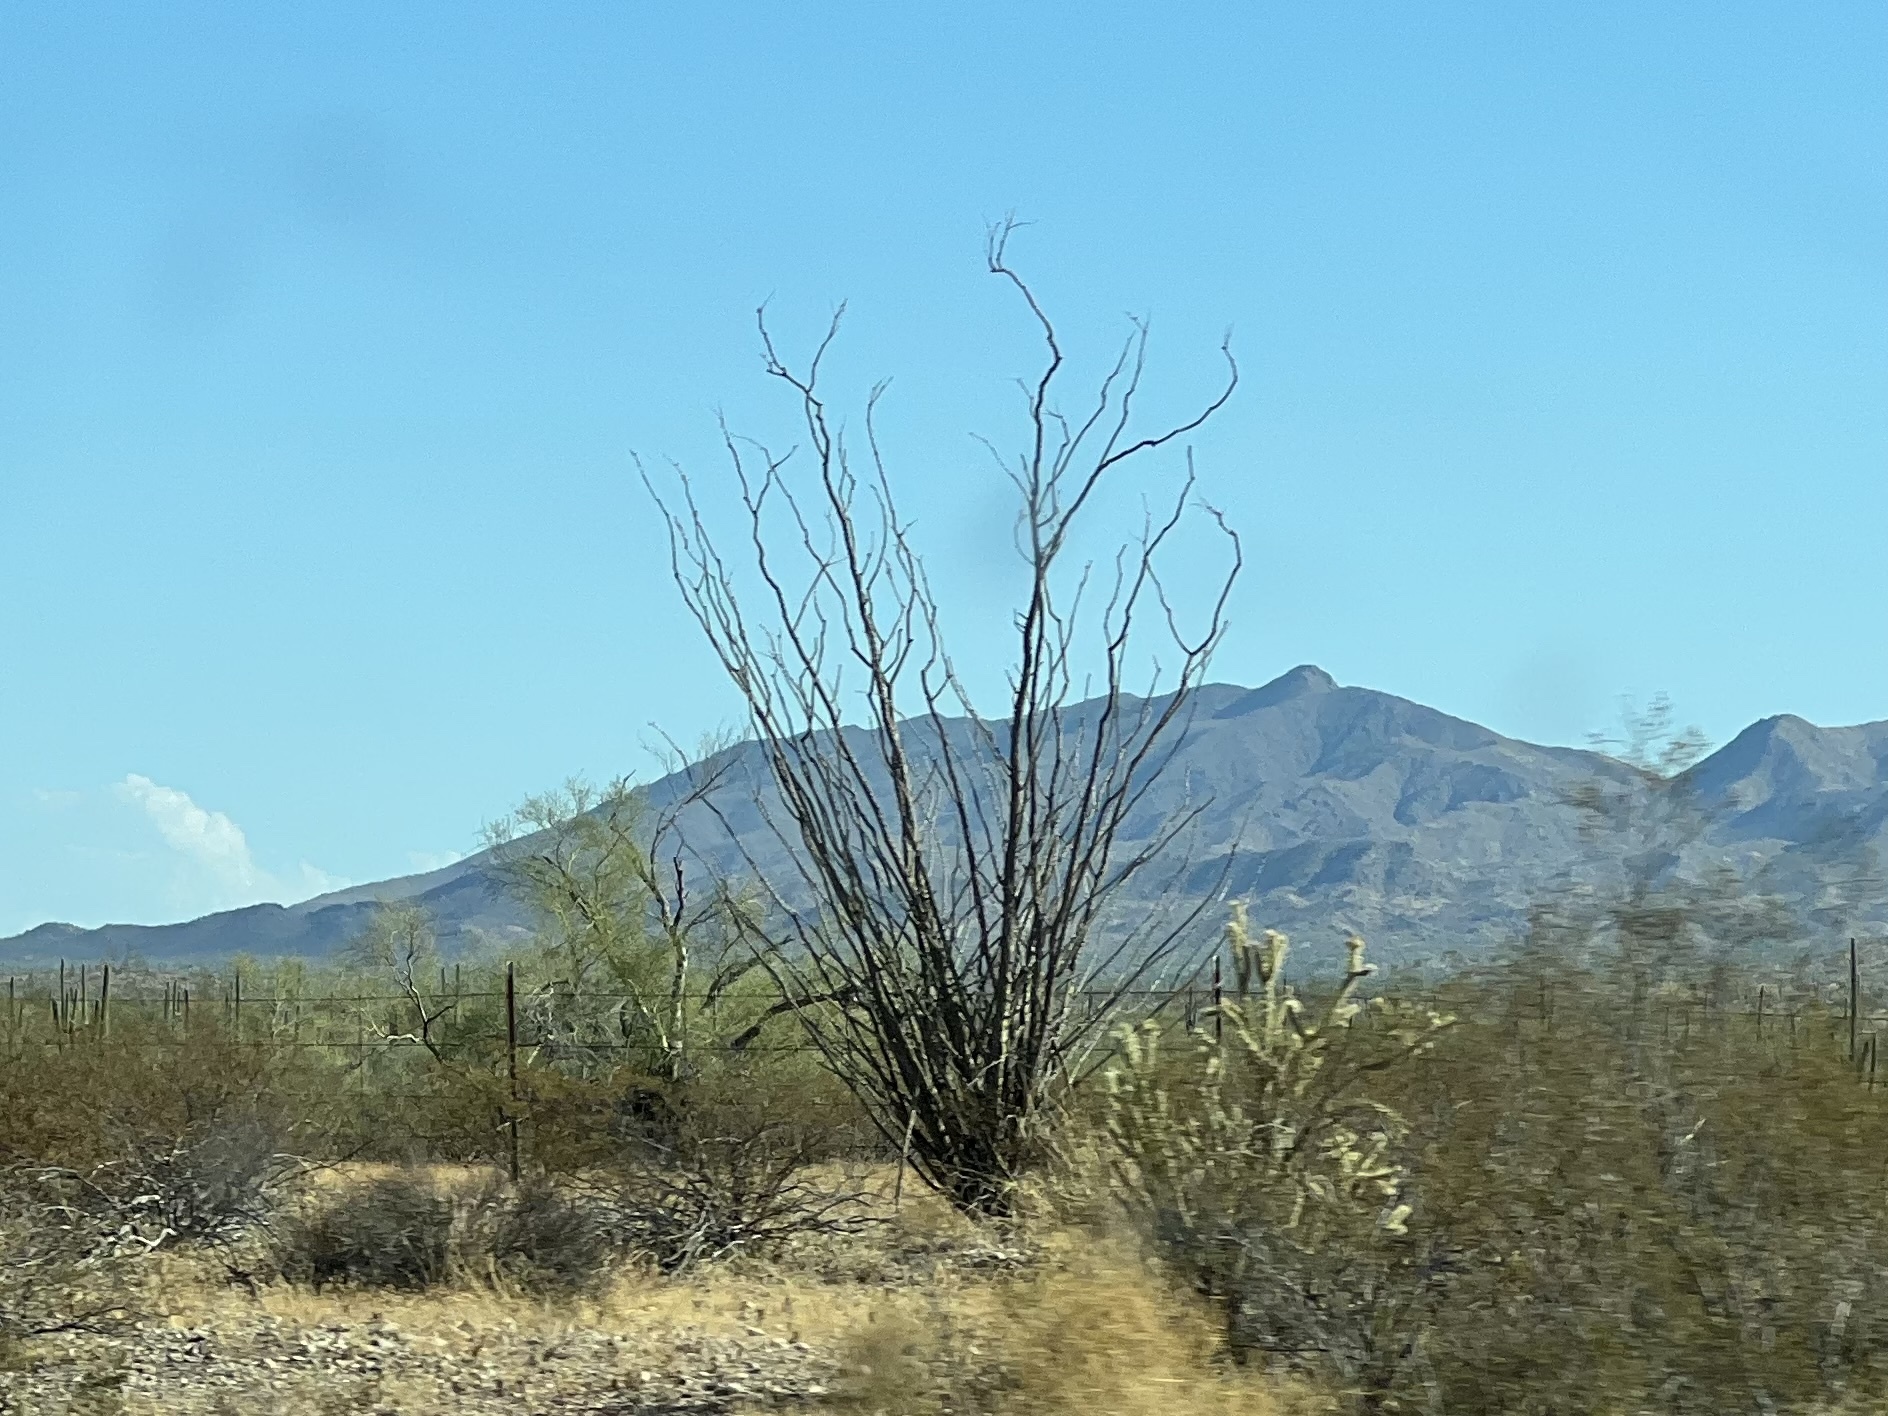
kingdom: Plantae
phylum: Tracheophyta
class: Magnoliopsida
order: Ericales
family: Fouquieriaceae
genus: Fouquieria
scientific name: Fouquieria splendens
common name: Vine-cactus
